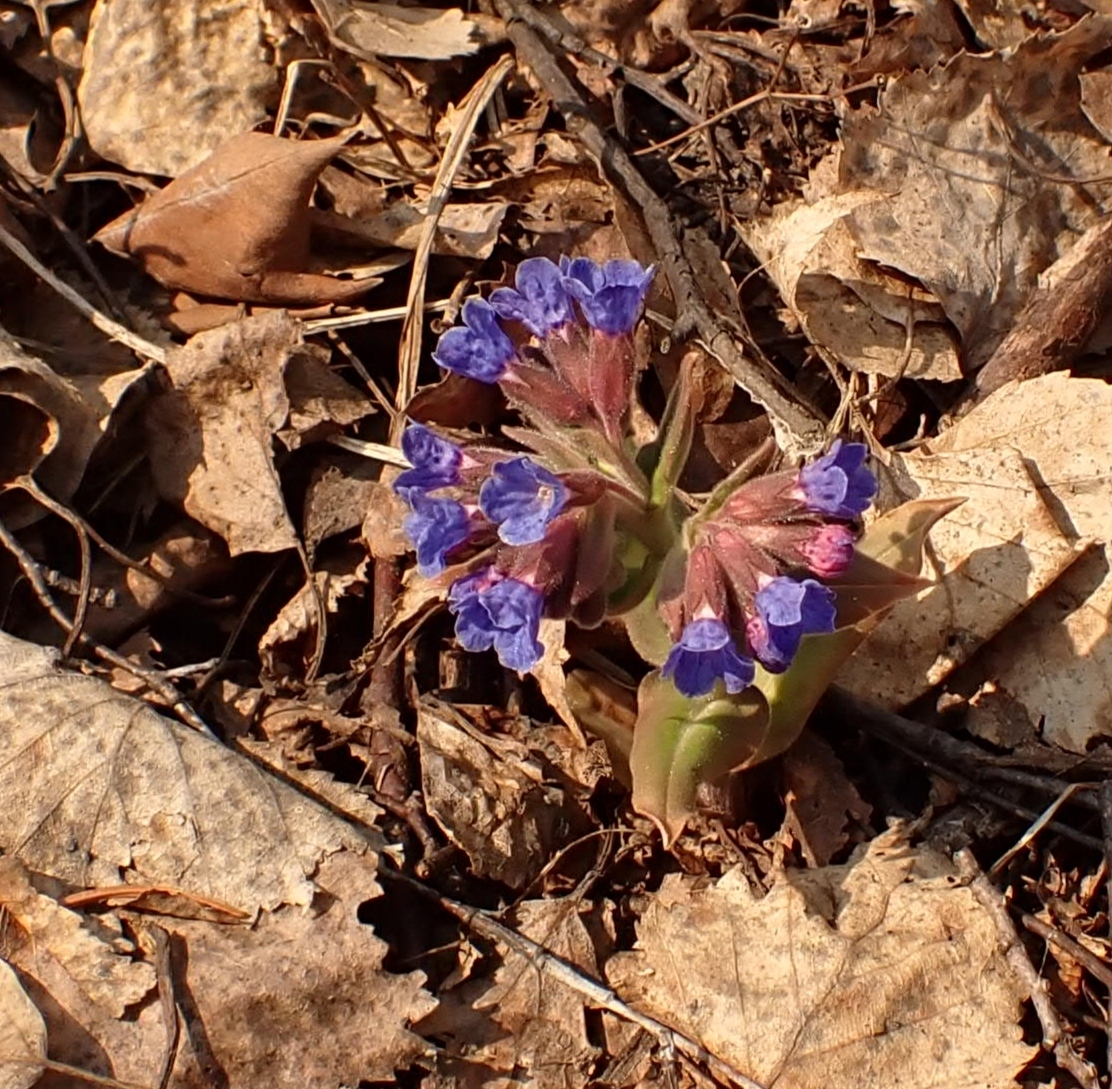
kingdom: Plantae
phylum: Tracheophyta
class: Magnoliopsida
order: Boraginales
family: Boraginaceae
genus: Pulmonaria
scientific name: Pulmonaria mollis
